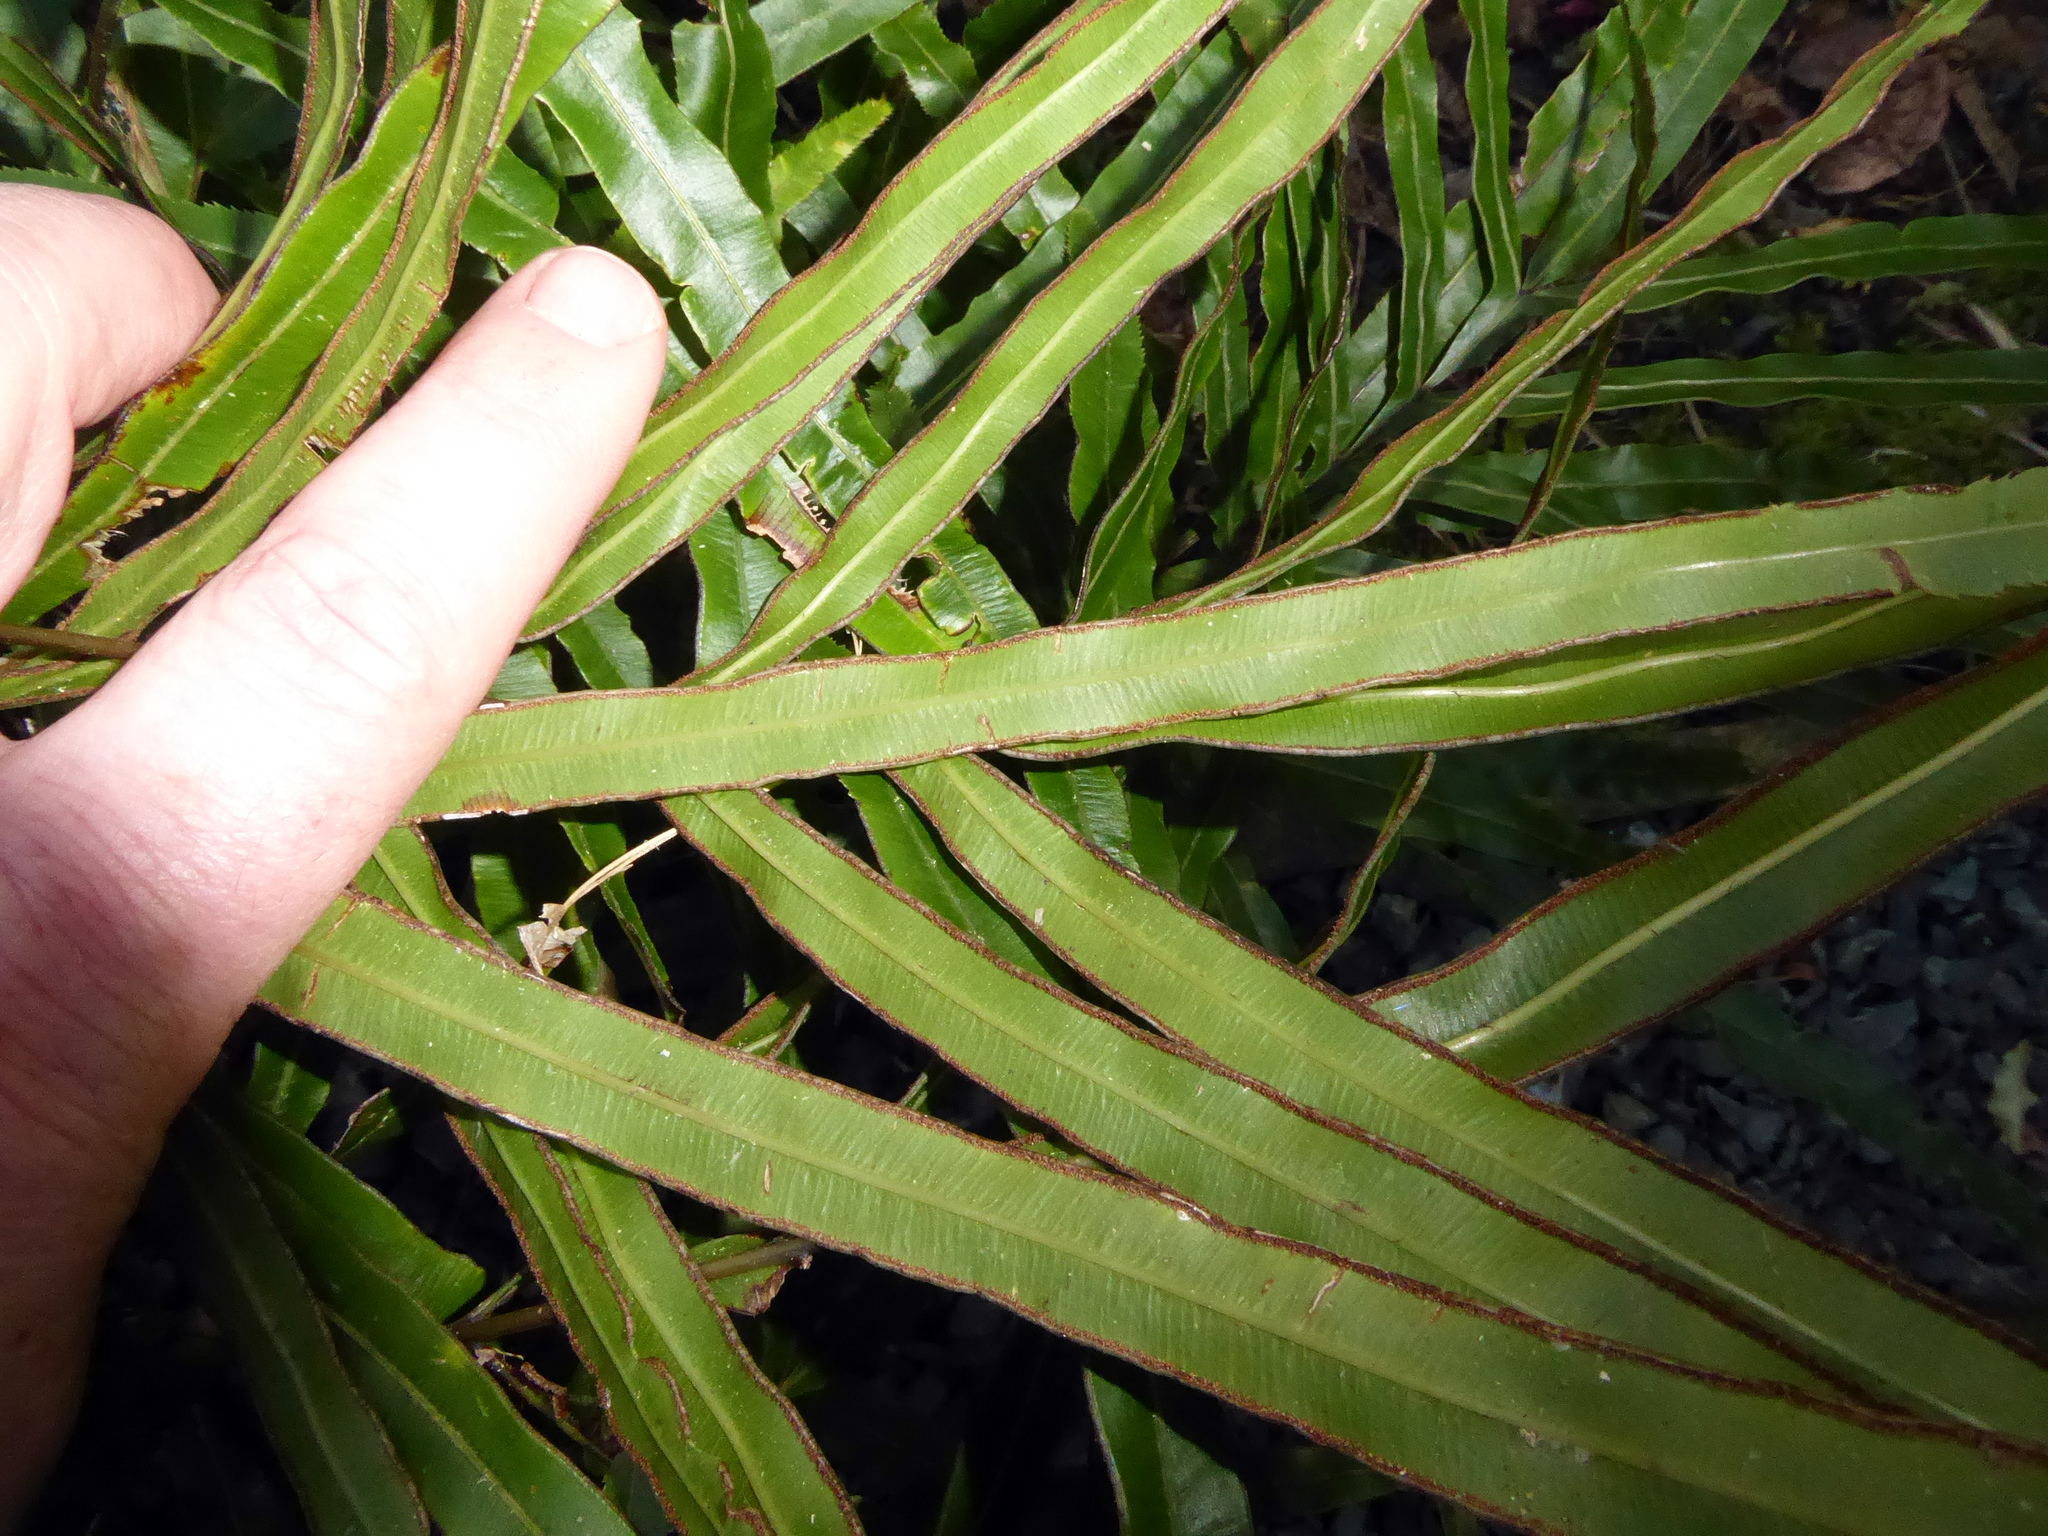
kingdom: Plantae
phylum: Tracheophyta
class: Polypodiopsida
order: Polypodiales
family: Pteridaceae
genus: Pteris
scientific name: Pteris cretica
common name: Ribbon fern
